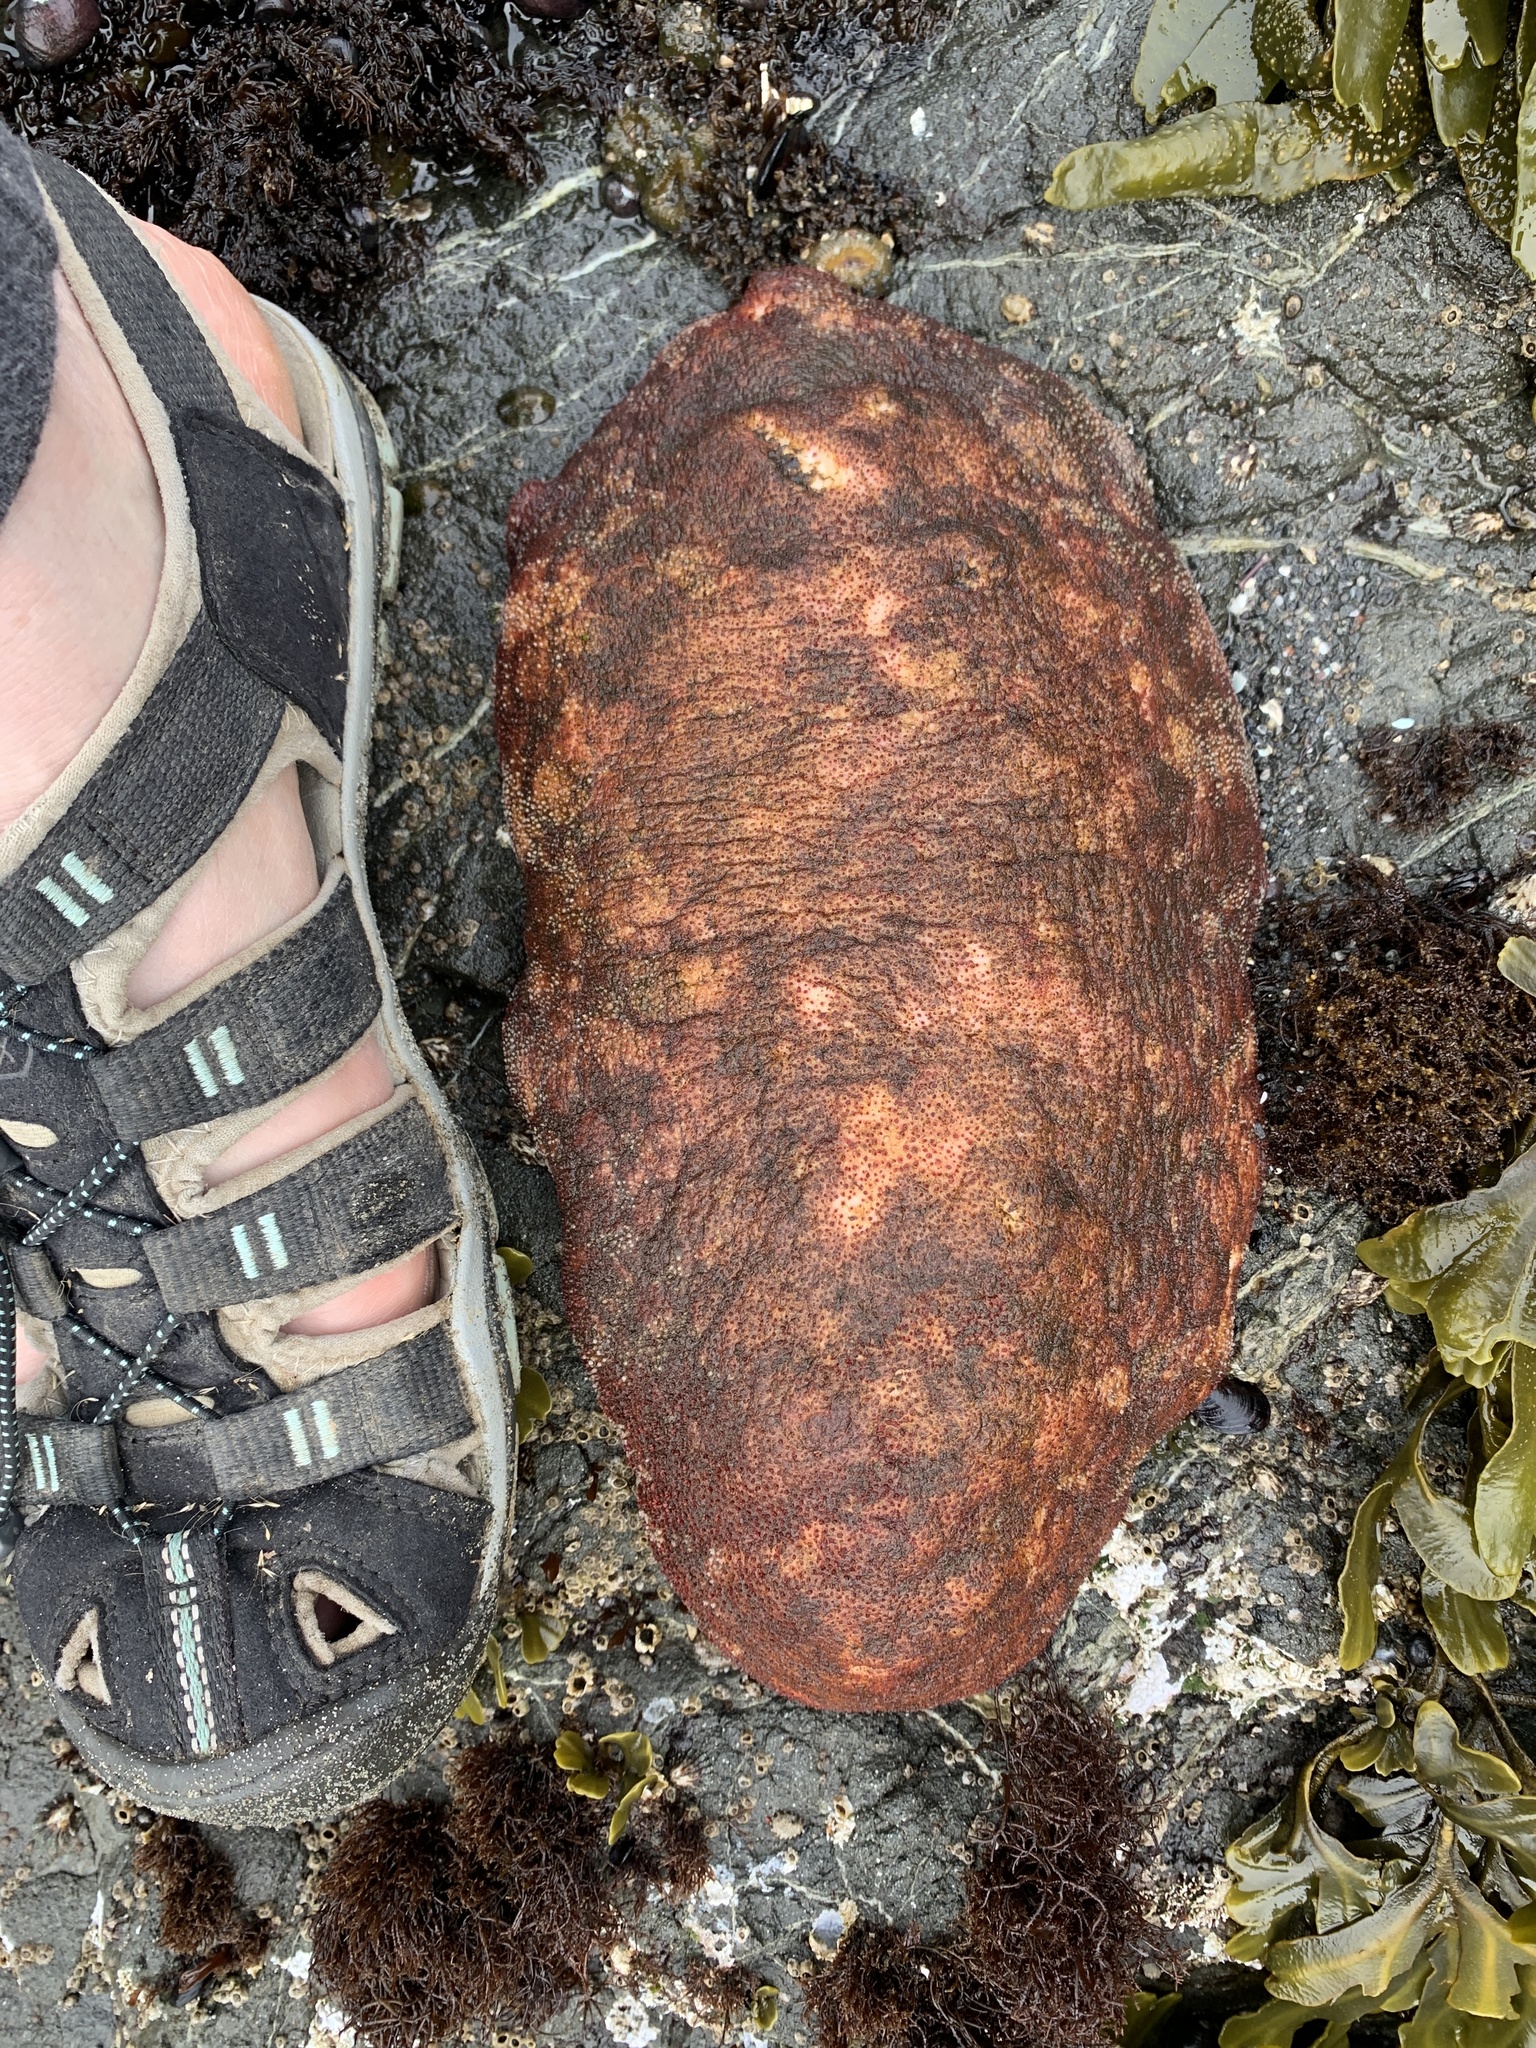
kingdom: Animalia
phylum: Mollusca
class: Polyplacophora
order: Chitonida
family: Acanthochitonidae
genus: Cryptochiton
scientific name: Cryptochiton stelleri
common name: Giant pacific chiton
